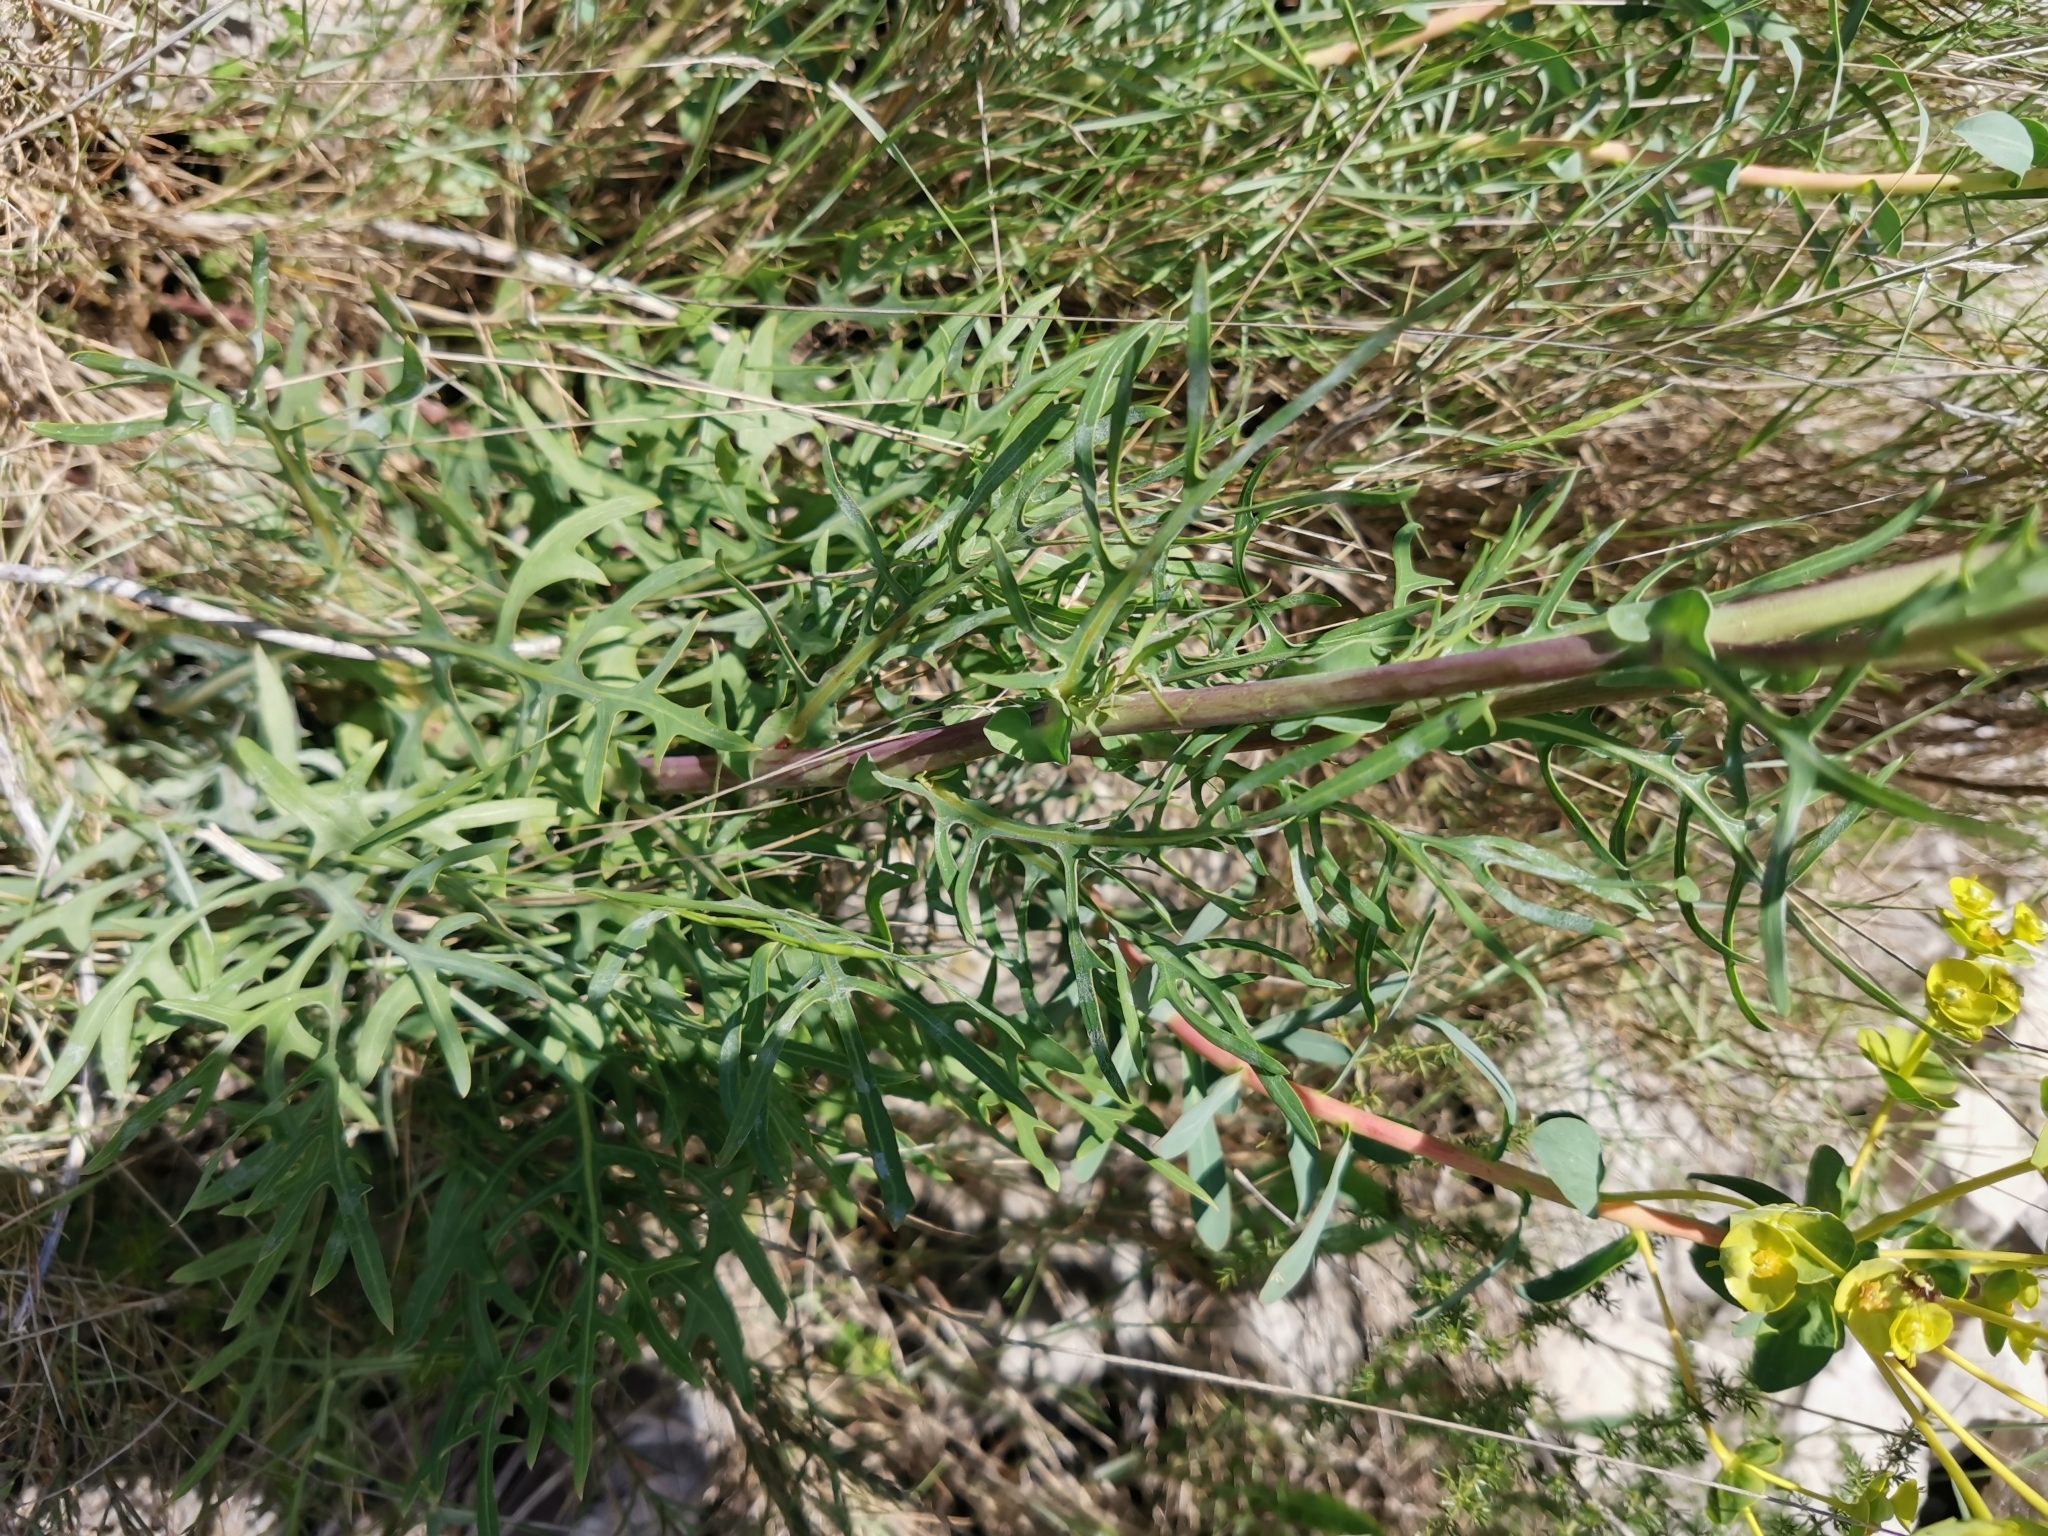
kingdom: Plantae
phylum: Tracheophyta
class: Magnoliopsida
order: Asterales
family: Asteraceae
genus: Lactuca
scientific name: Lactuca perennis
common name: Mountain lettuce
